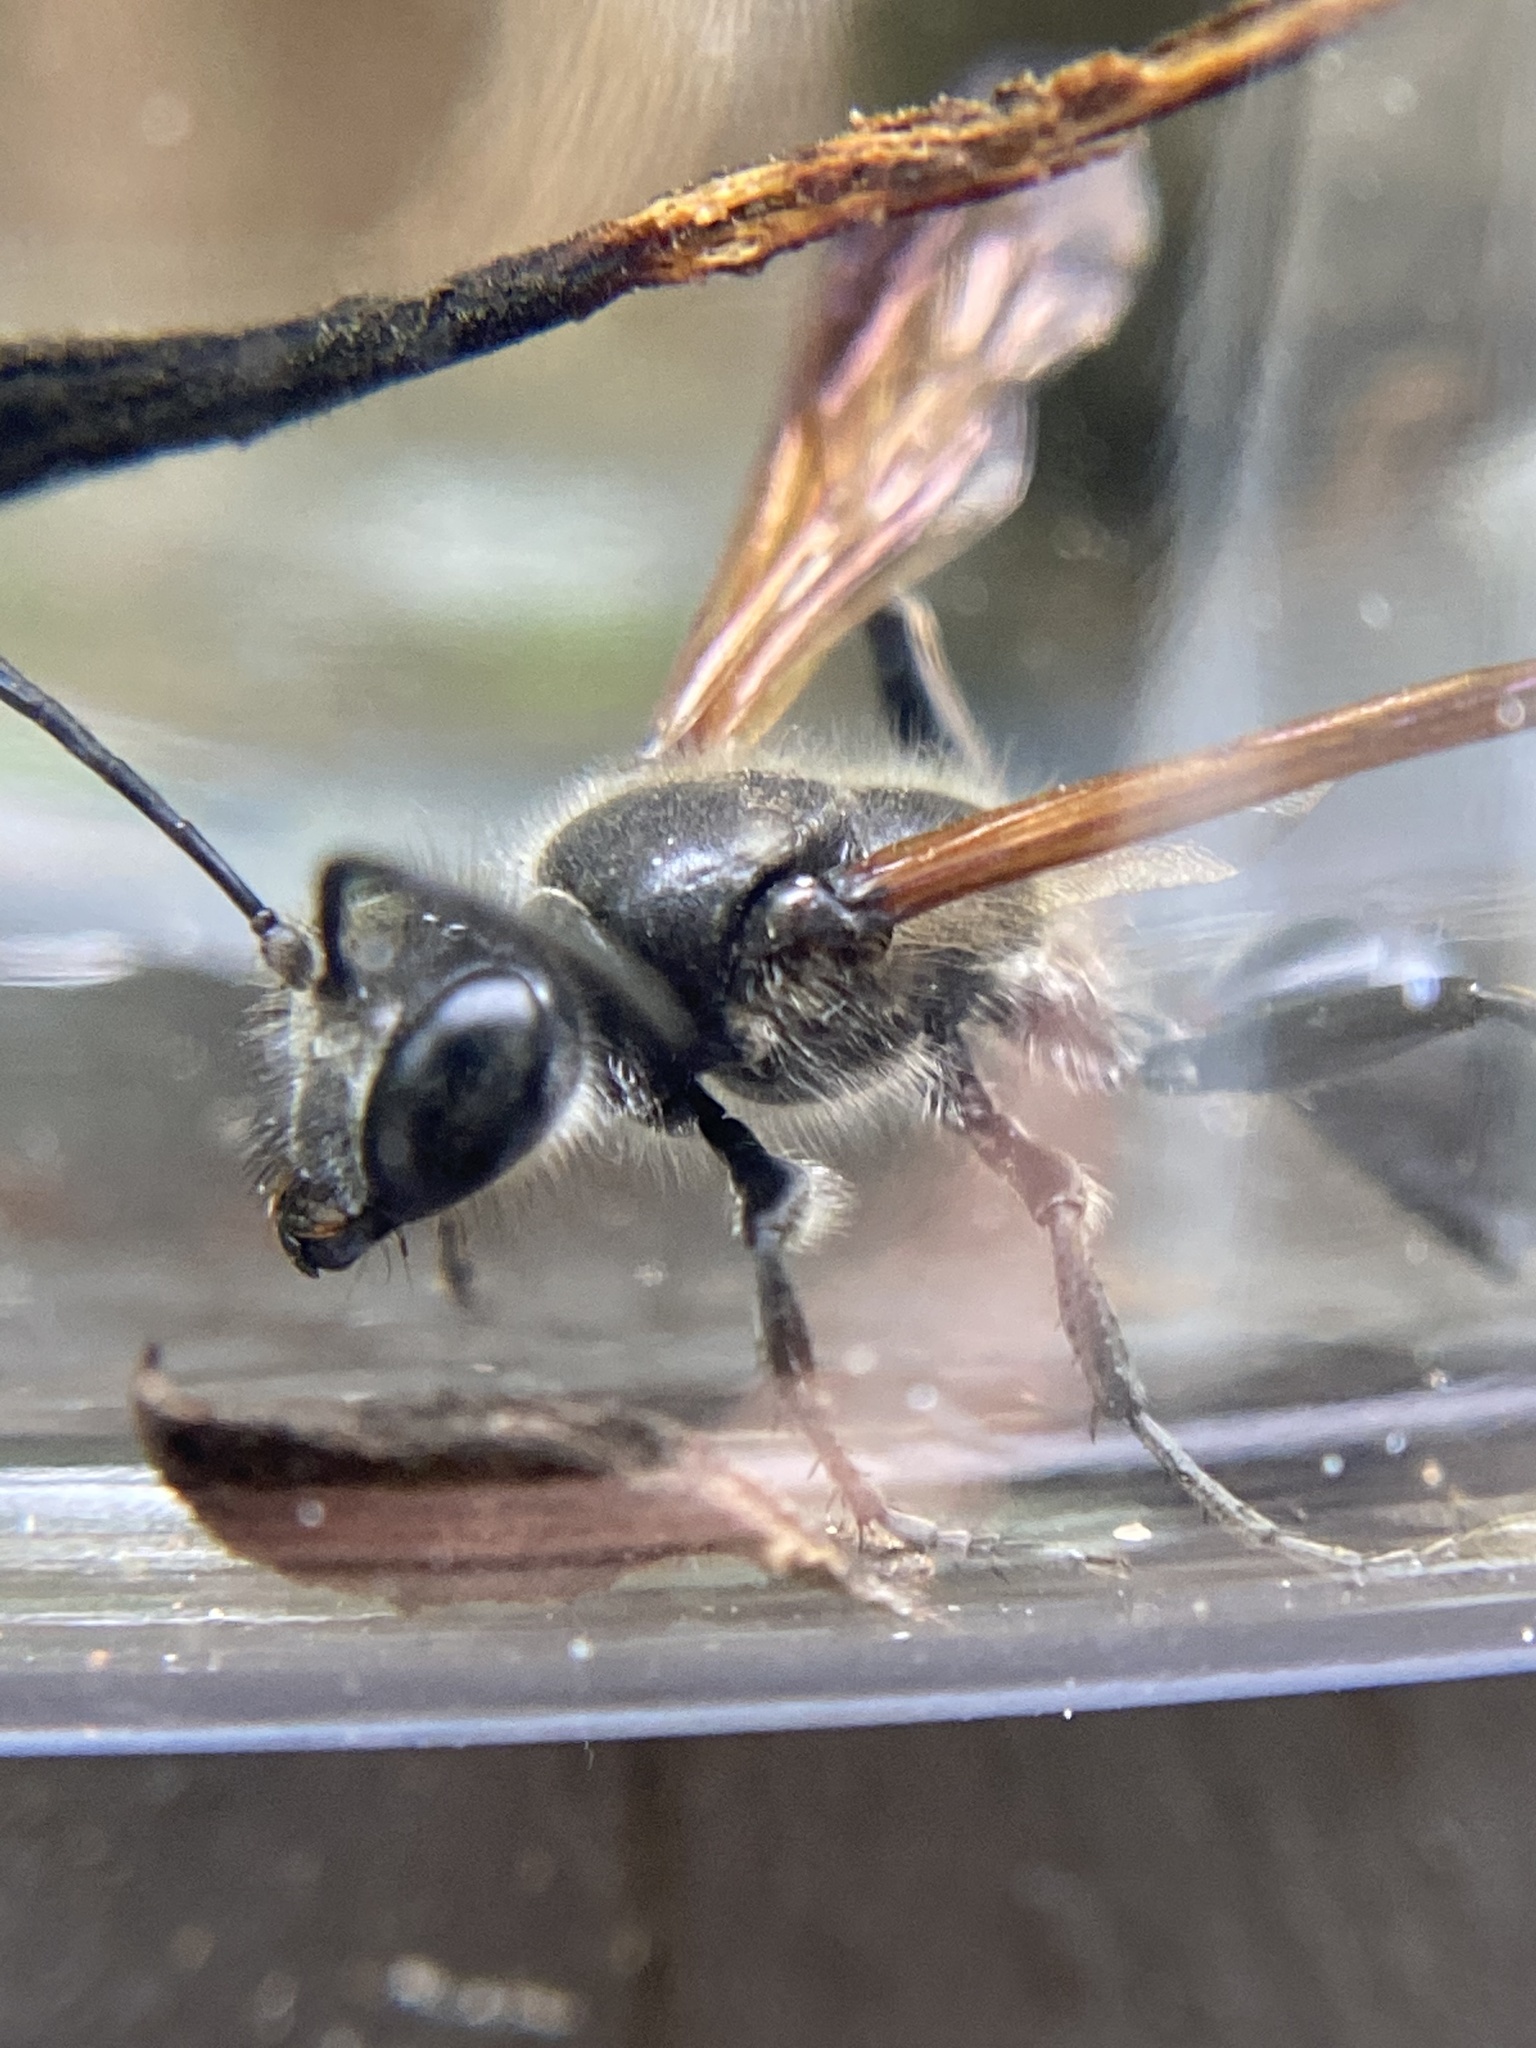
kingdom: Animalia
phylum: Arthropoda
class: Insecta
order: Hymenoptera
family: Sphecidae
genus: Isodontia
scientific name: Isodontia mexicana
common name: Mud dauber
